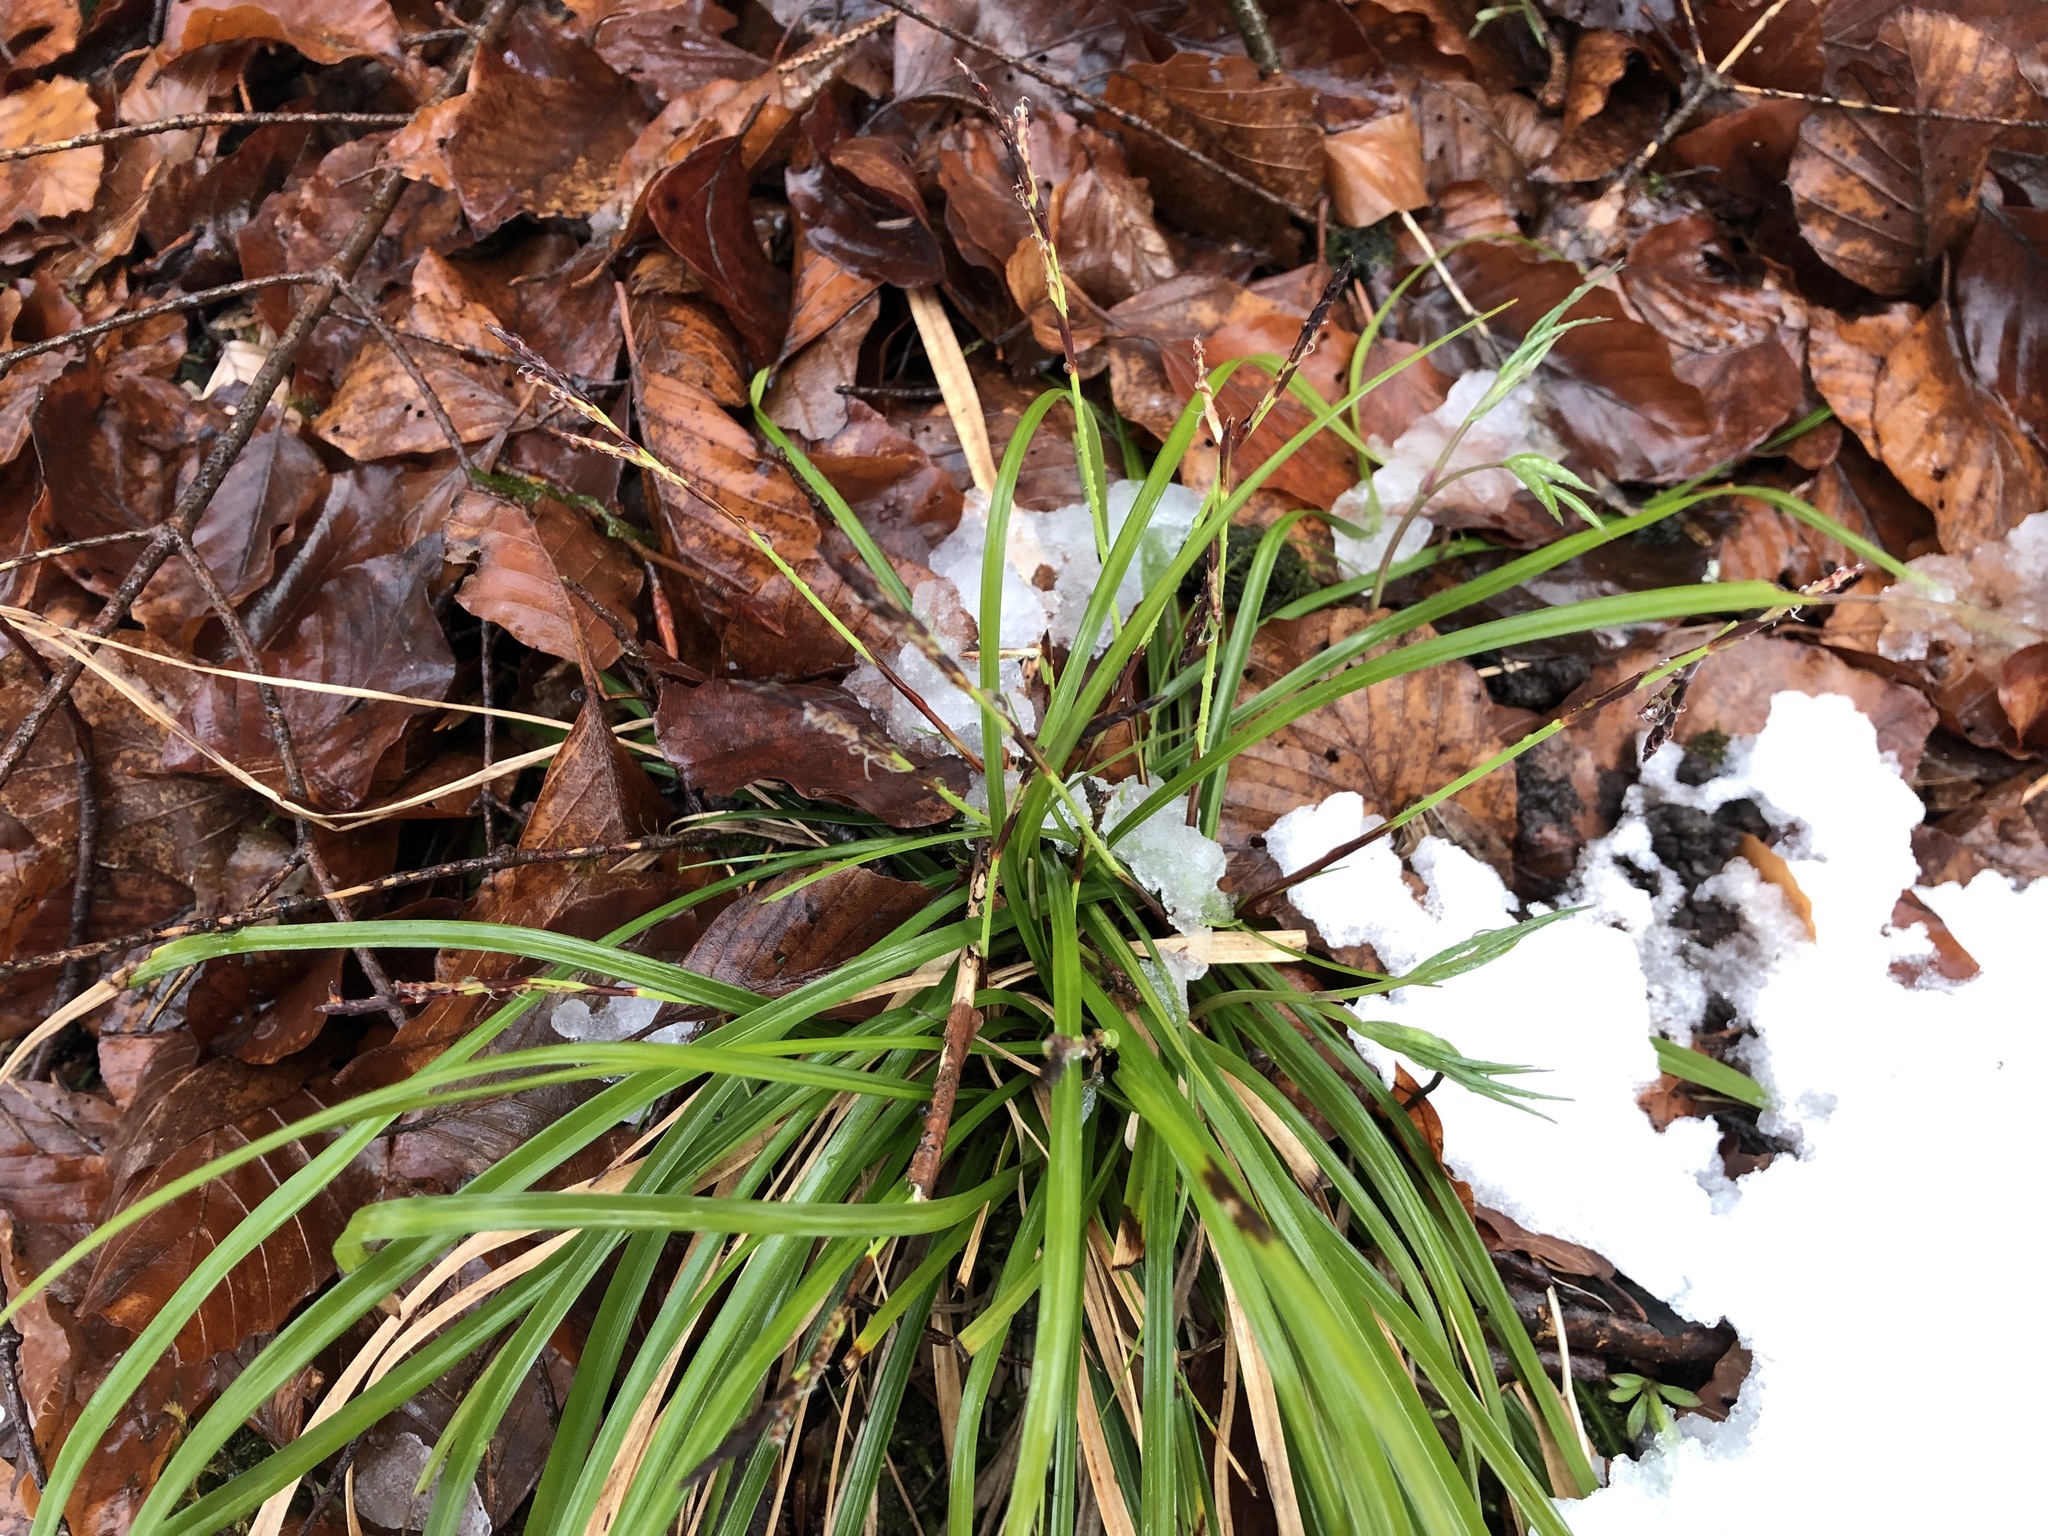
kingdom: Plantae
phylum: Tracheophyta
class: Liliopsida
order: Poales
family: Cyperaceae
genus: Carex
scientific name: Carex digitata
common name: Fingered sedge
